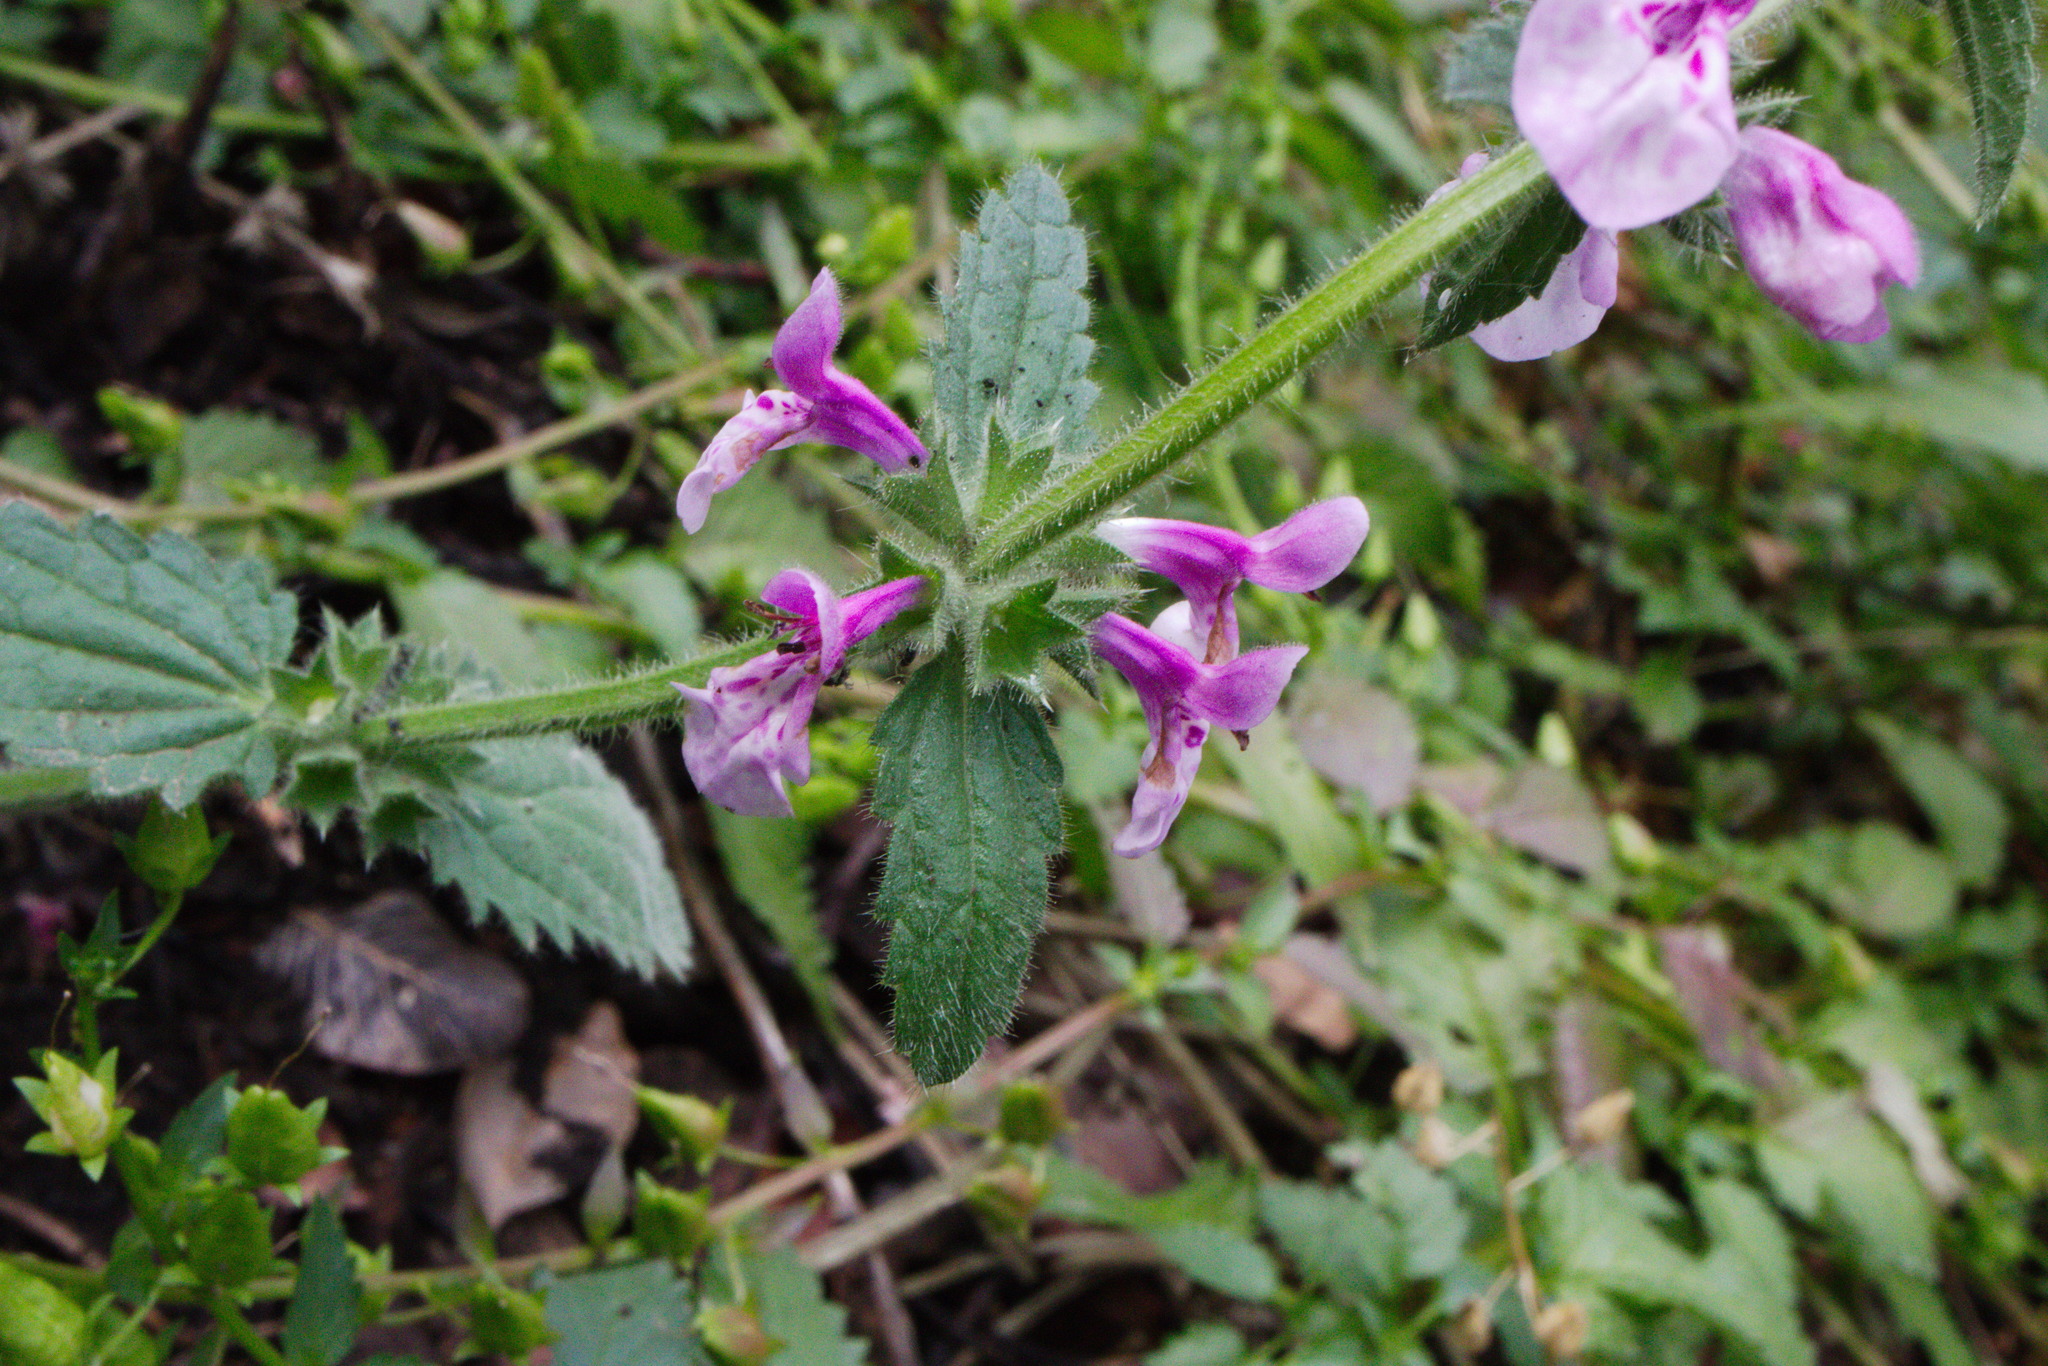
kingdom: Plantae
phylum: Tracheophyta
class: Magnoliopsida
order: Lamiales
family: Lamiaceae
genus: Stachys
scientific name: Stachys grandidentata
